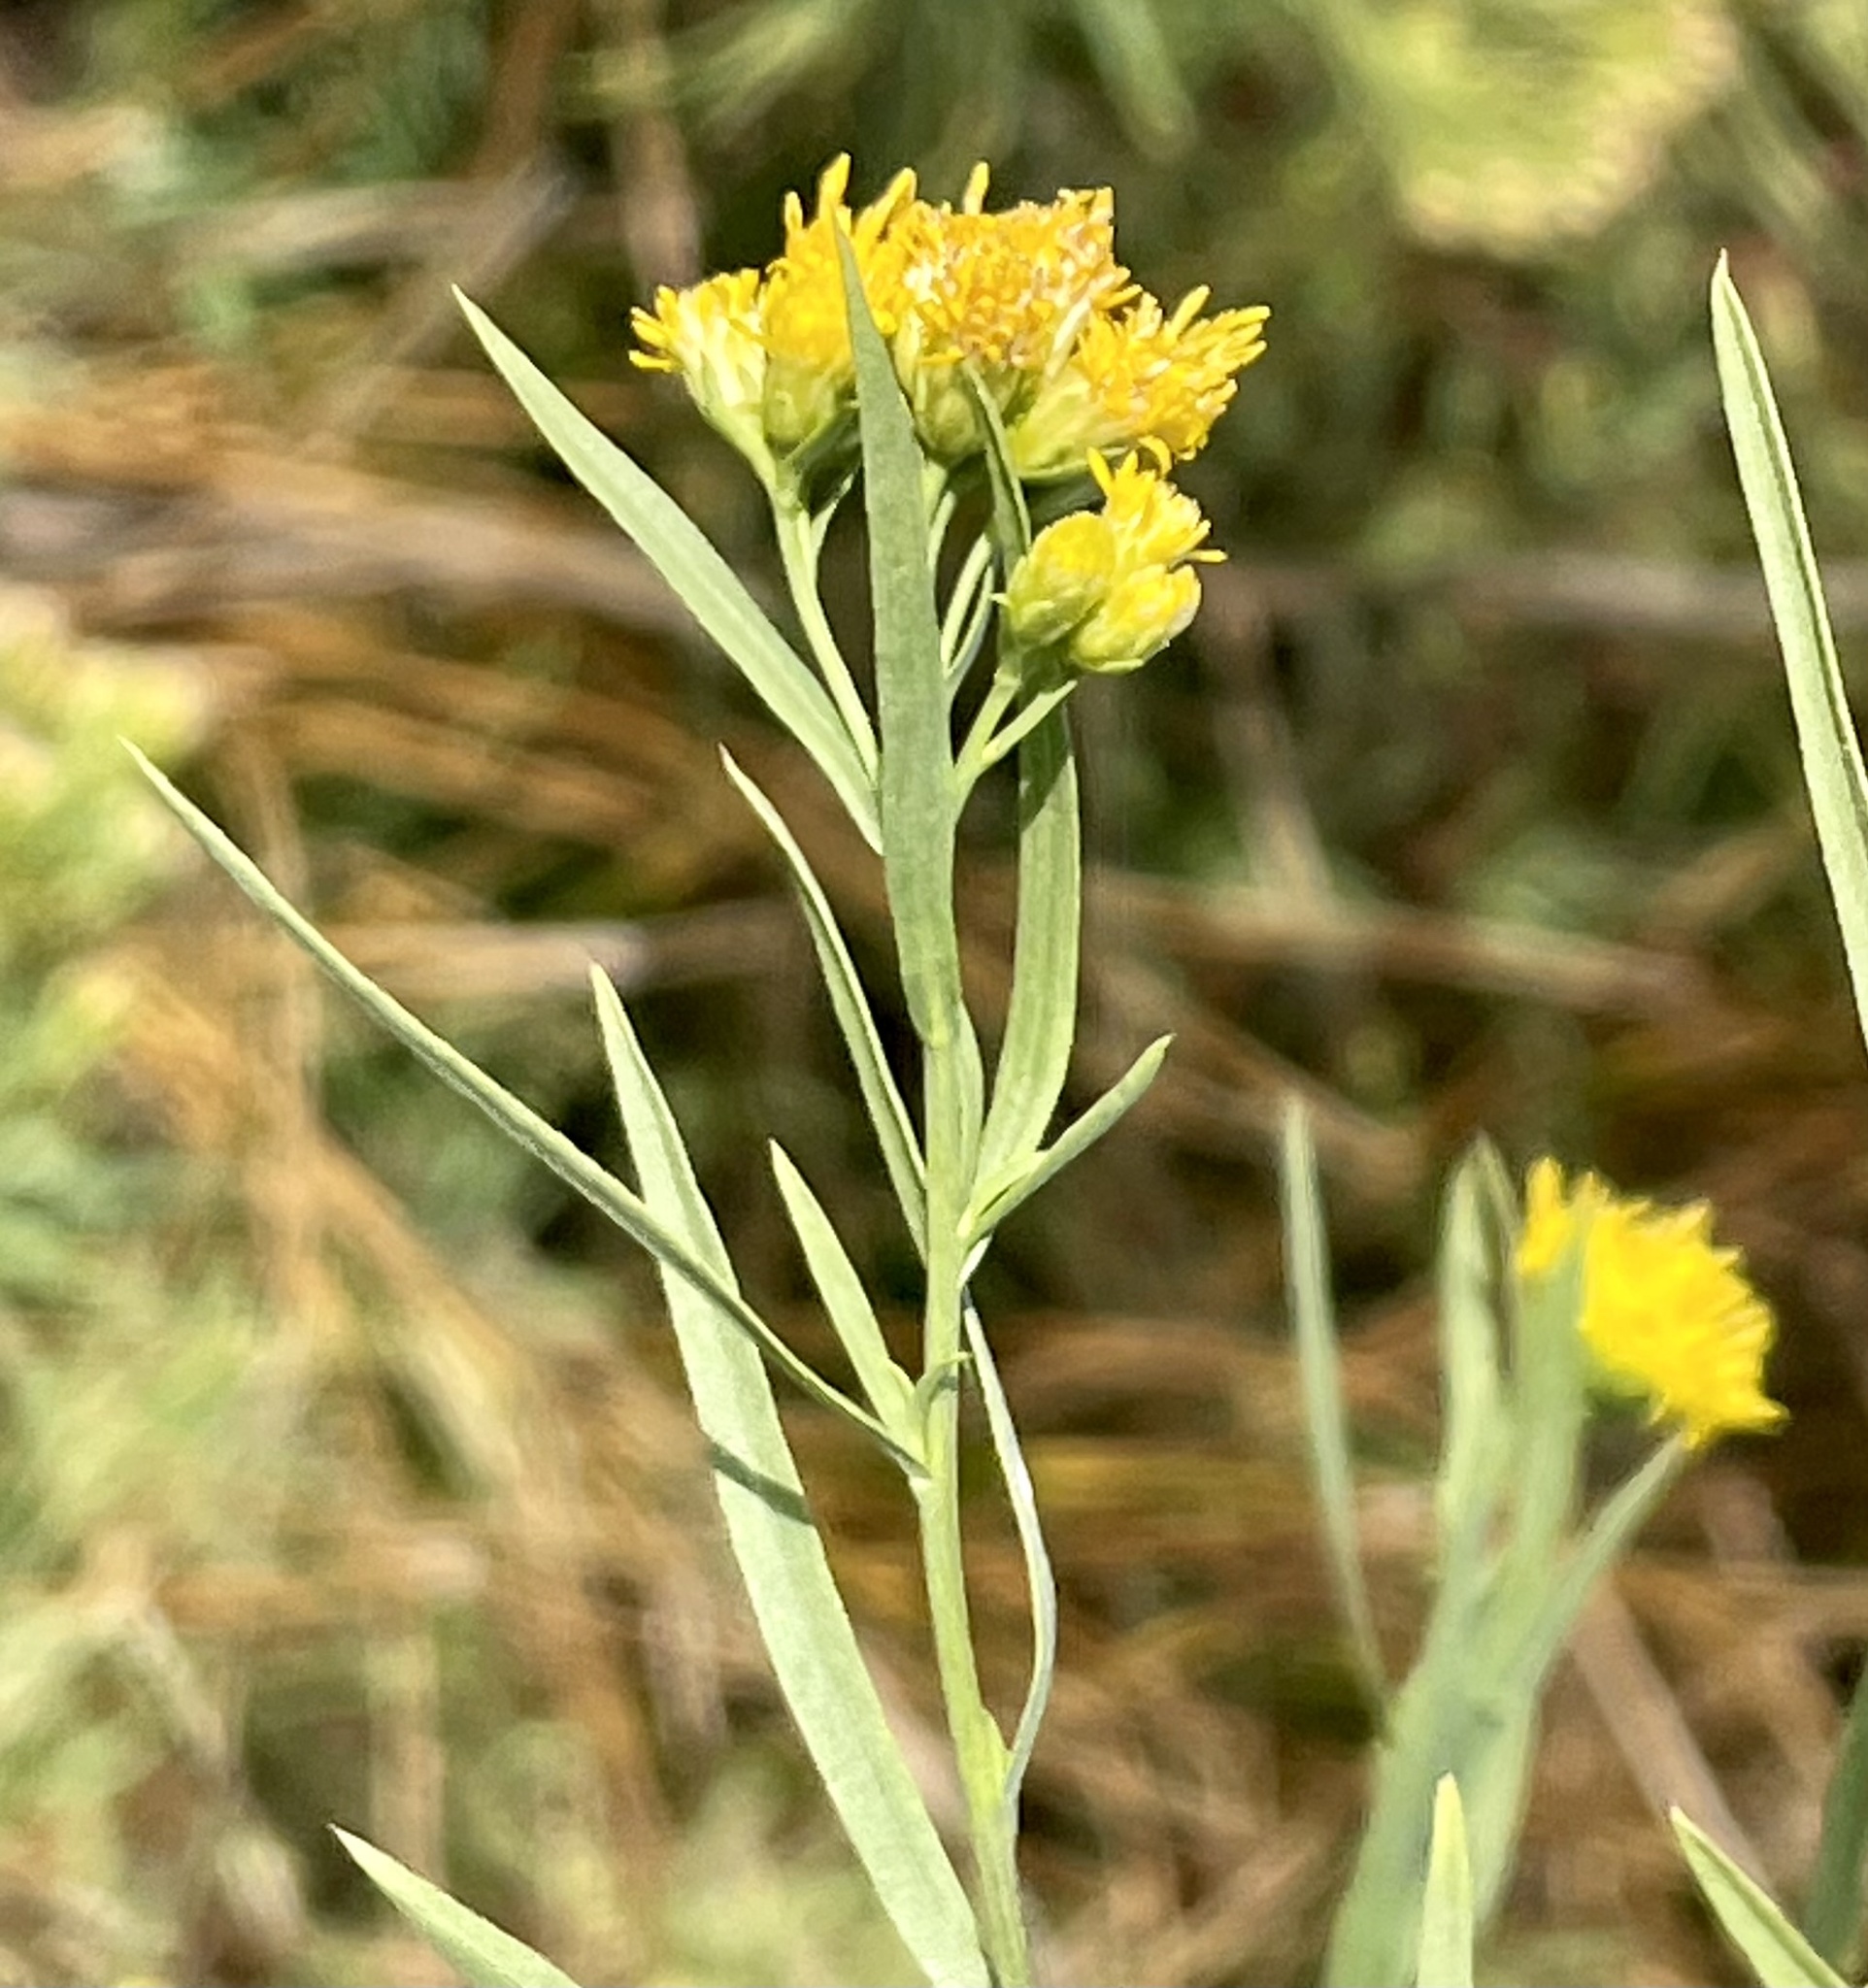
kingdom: Plantae
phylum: Tracheophyta
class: Magnoliopsida
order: Asterales
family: Asteraceae
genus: Euthamia
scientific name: Euthamia occidentalis
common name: Western goldentop
